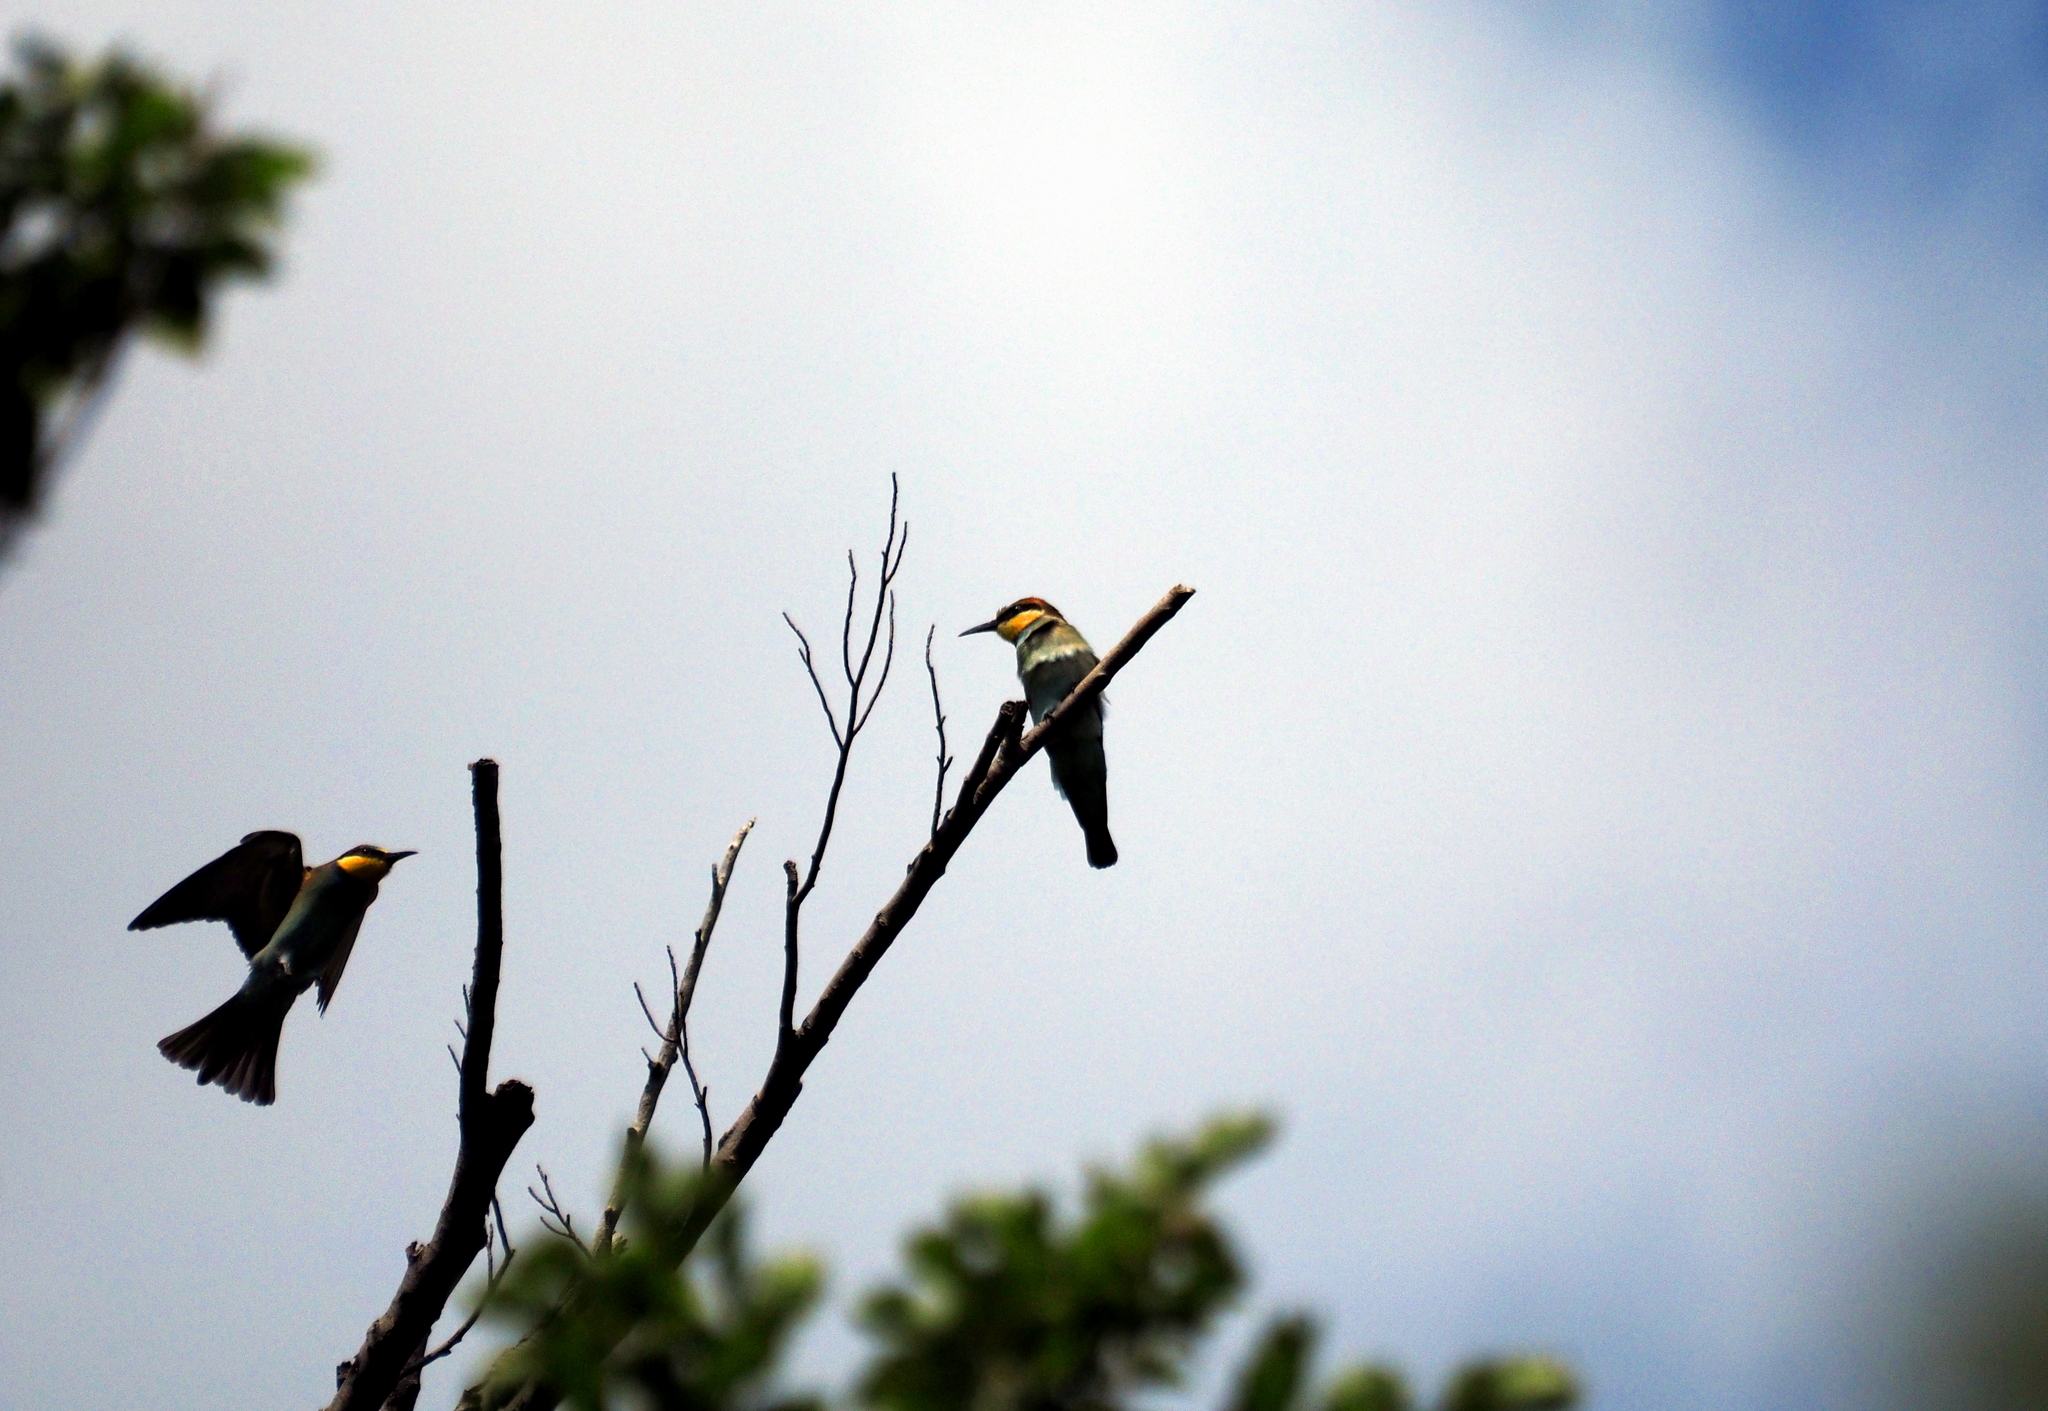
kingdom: Animalia
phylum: Chordata
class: Aves
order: Coraciiformes
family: Meropidae
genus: Merops
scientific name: Merops apiaster
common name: European bee-eater
